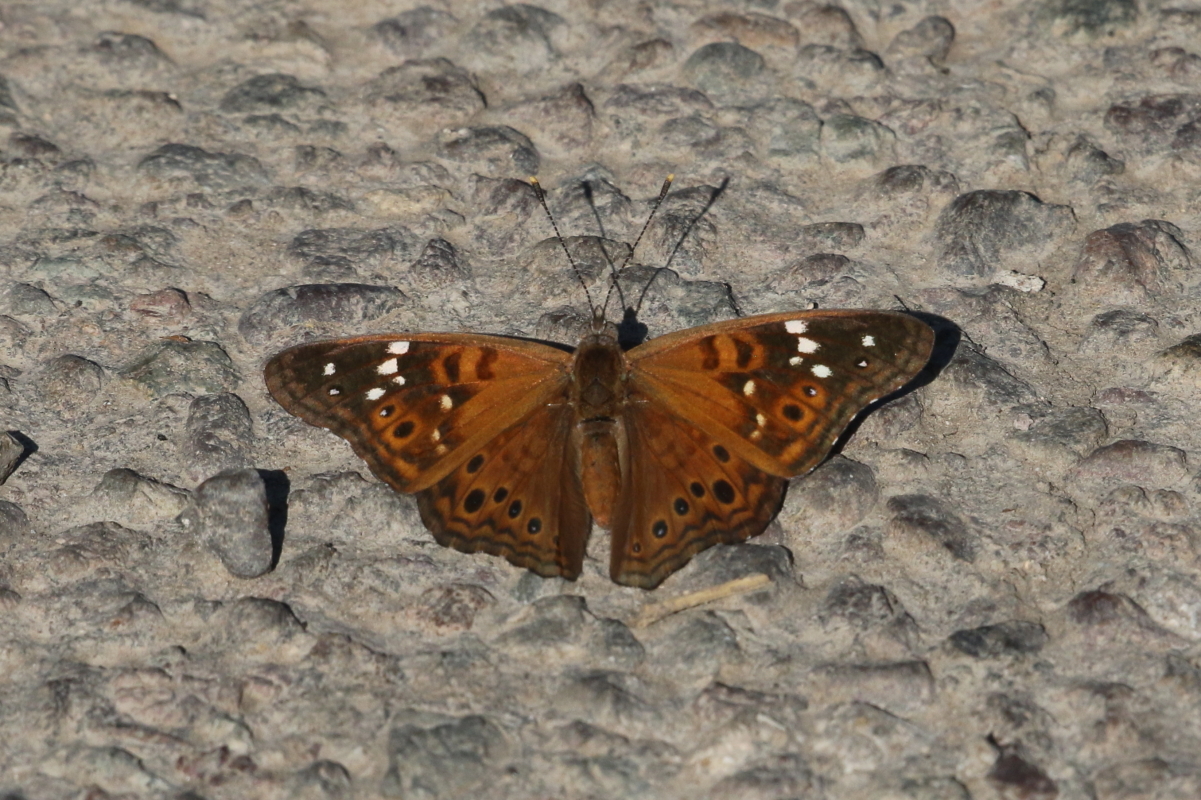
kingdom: Animalia
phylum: Arthropoda
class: Insecta
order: Lepidoptera
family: Nymphalidae
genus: Asterocampa
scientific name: Asterocampa leilia
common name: Empress leilia
